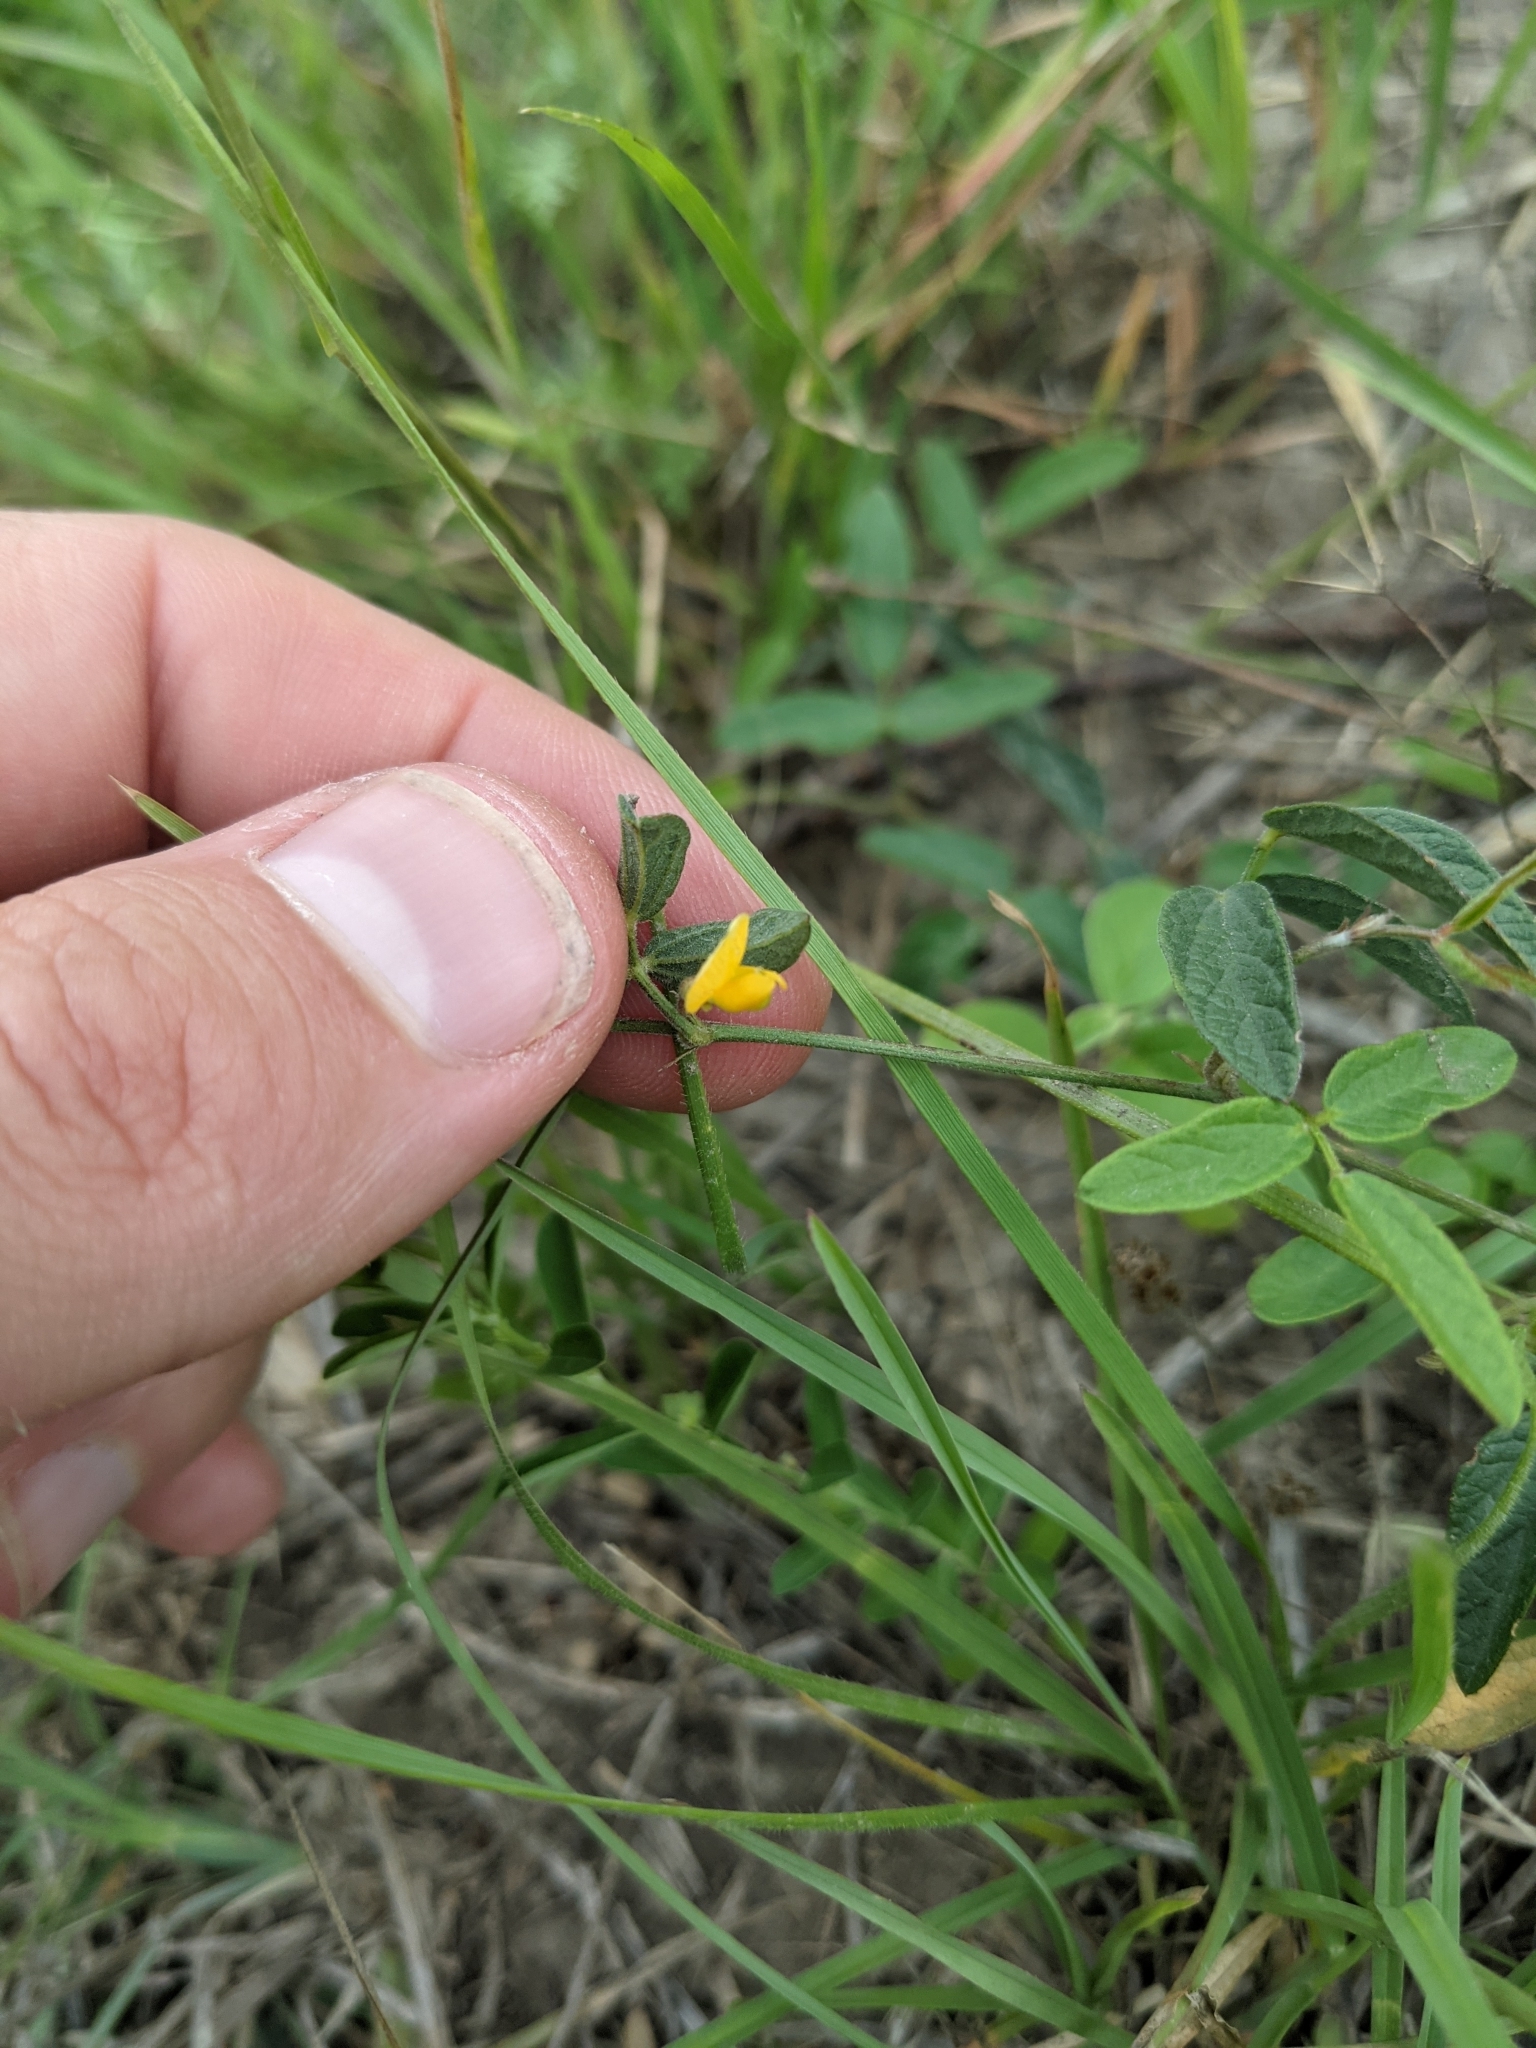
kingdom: Plantae
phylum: Tracheophyta
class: Magnoliopsida
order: Fabales
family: Fabaceae
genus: Rhynchosia
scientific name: Rhynchosia senna
